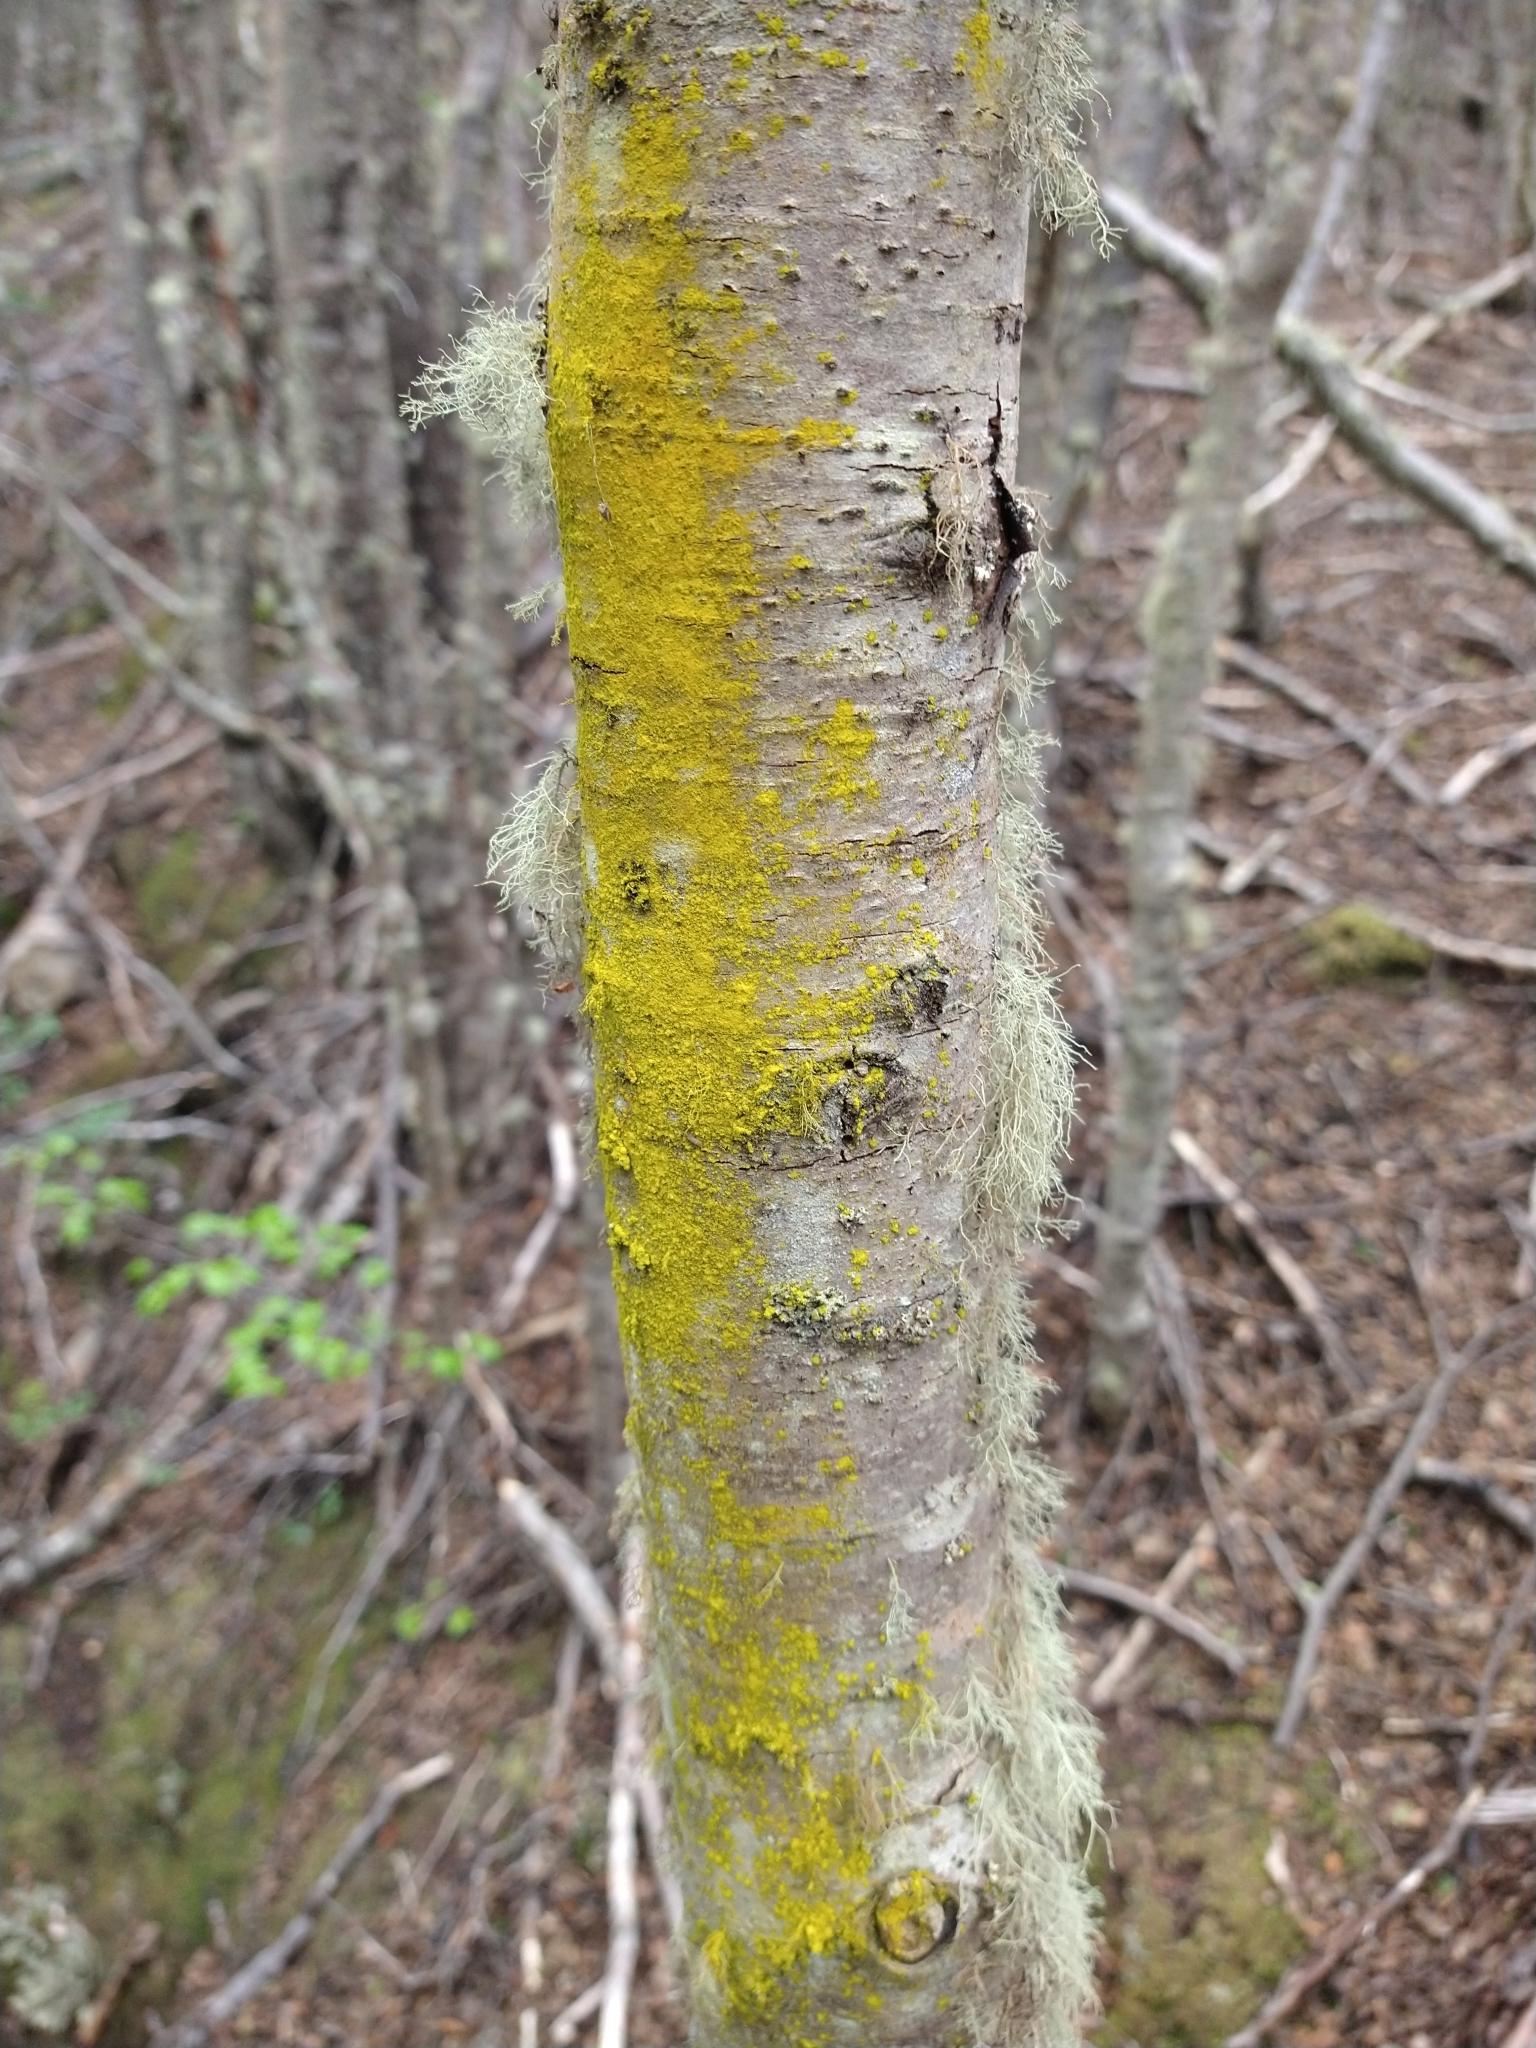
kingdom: Fungi
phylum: Ascomycota
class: Arthoniomycetes
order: Arthoniales
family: Chrysotrichaceae
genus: Chrysothrix
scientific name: Chrysothrix candelaris
